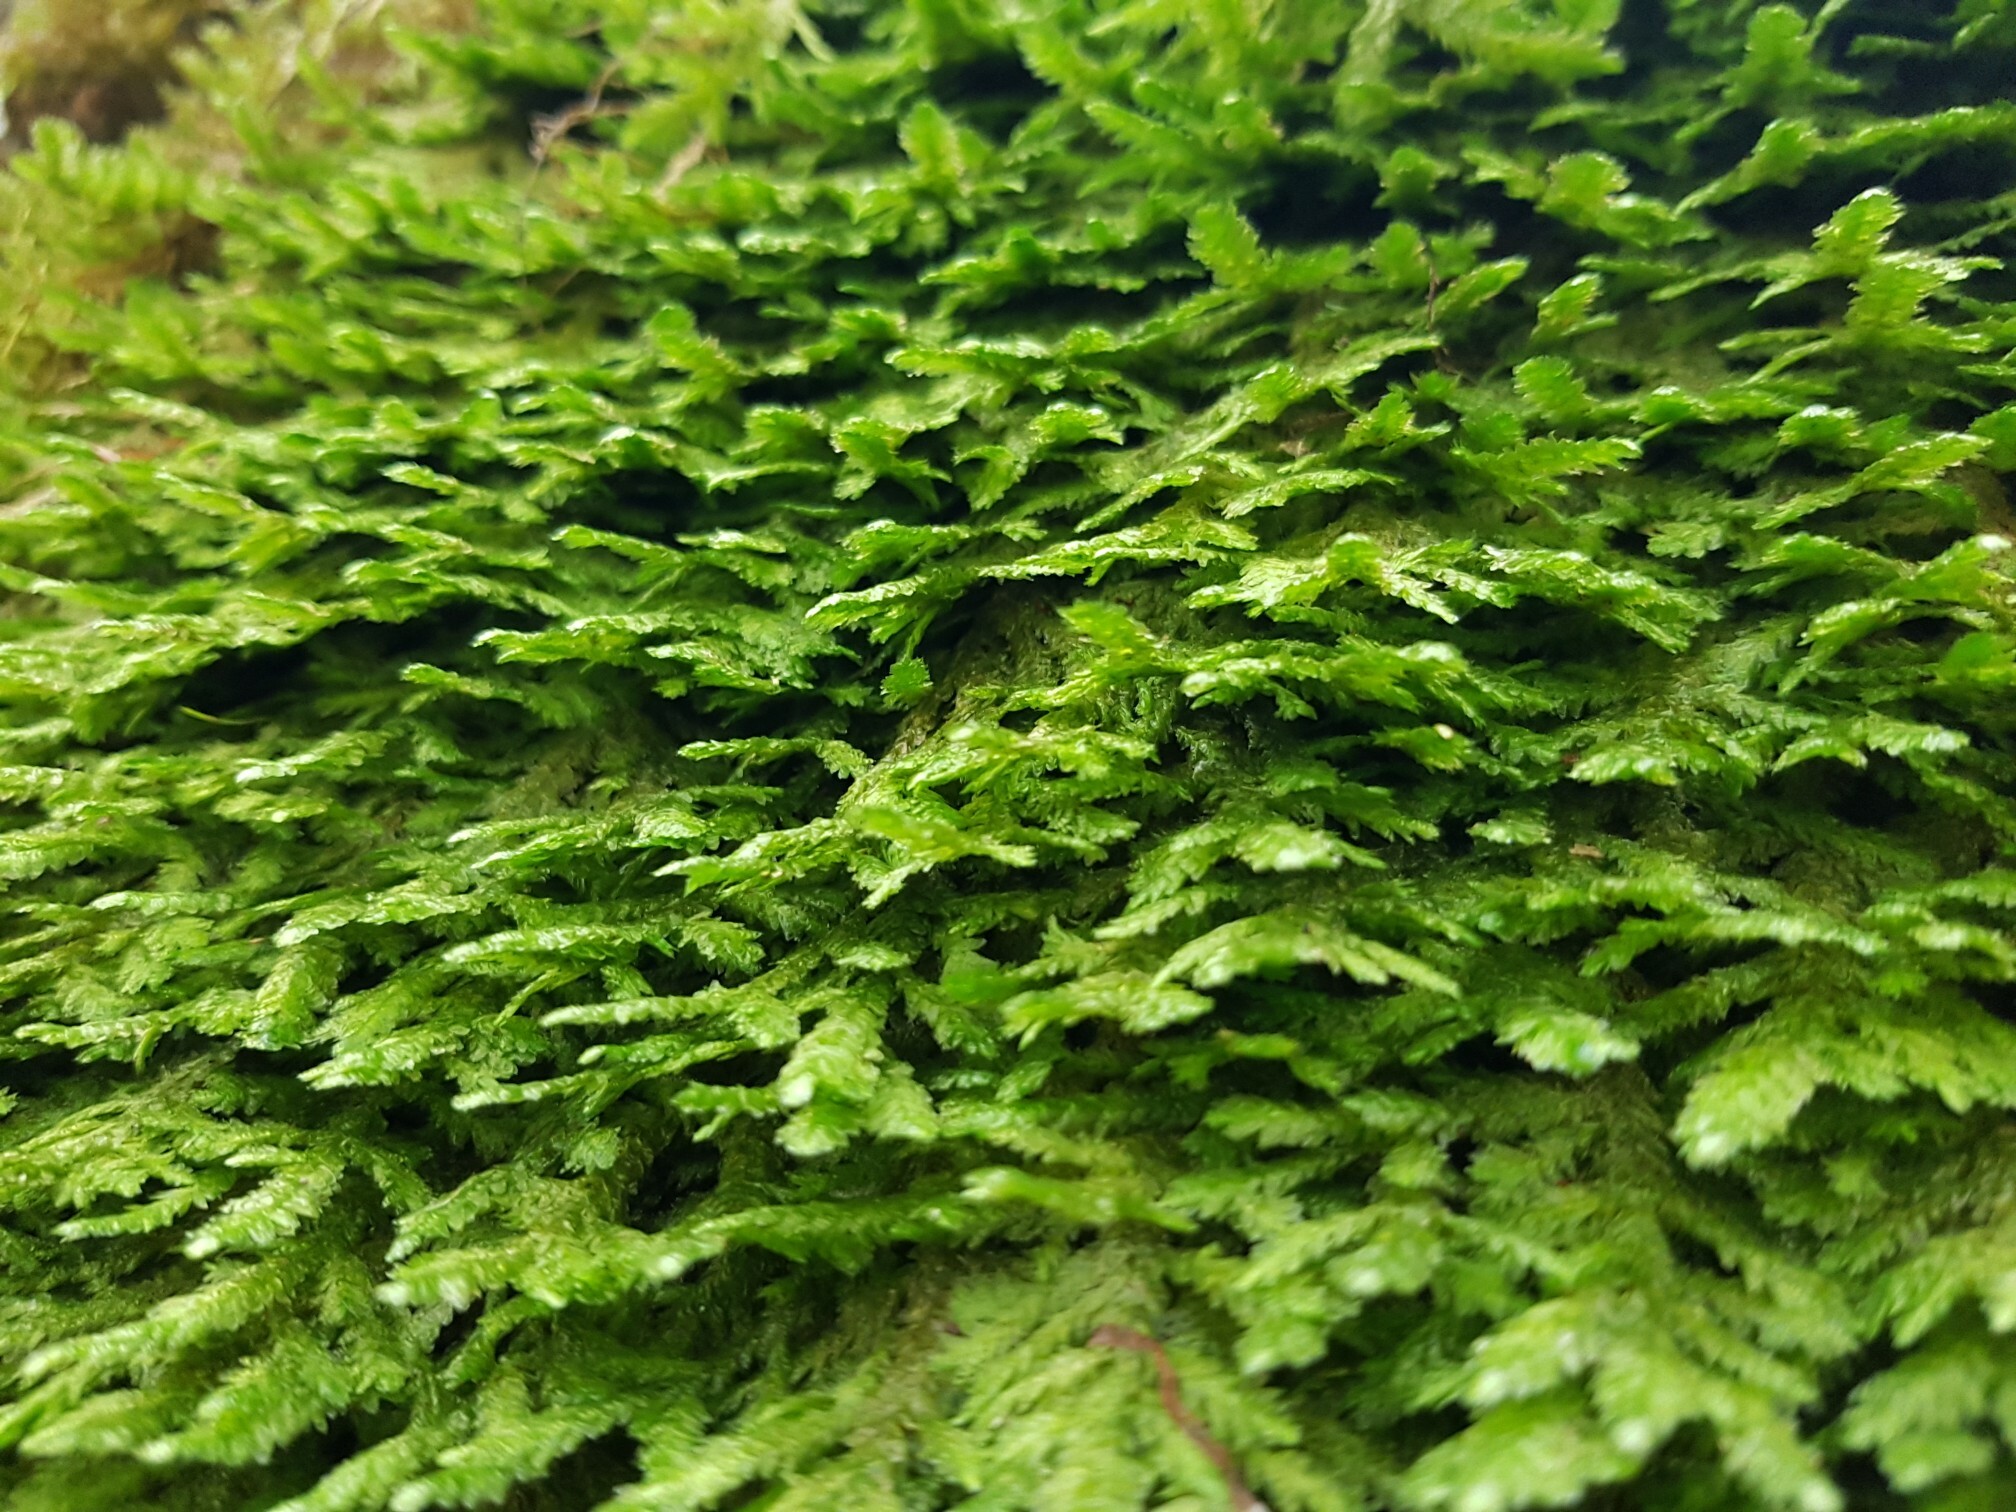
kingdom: Plantae
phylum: Bryophyta
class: Bryopsida
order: Hypnales
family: Neckeraceae
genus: Exsertotheca
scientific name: Exsertotheca crispa
